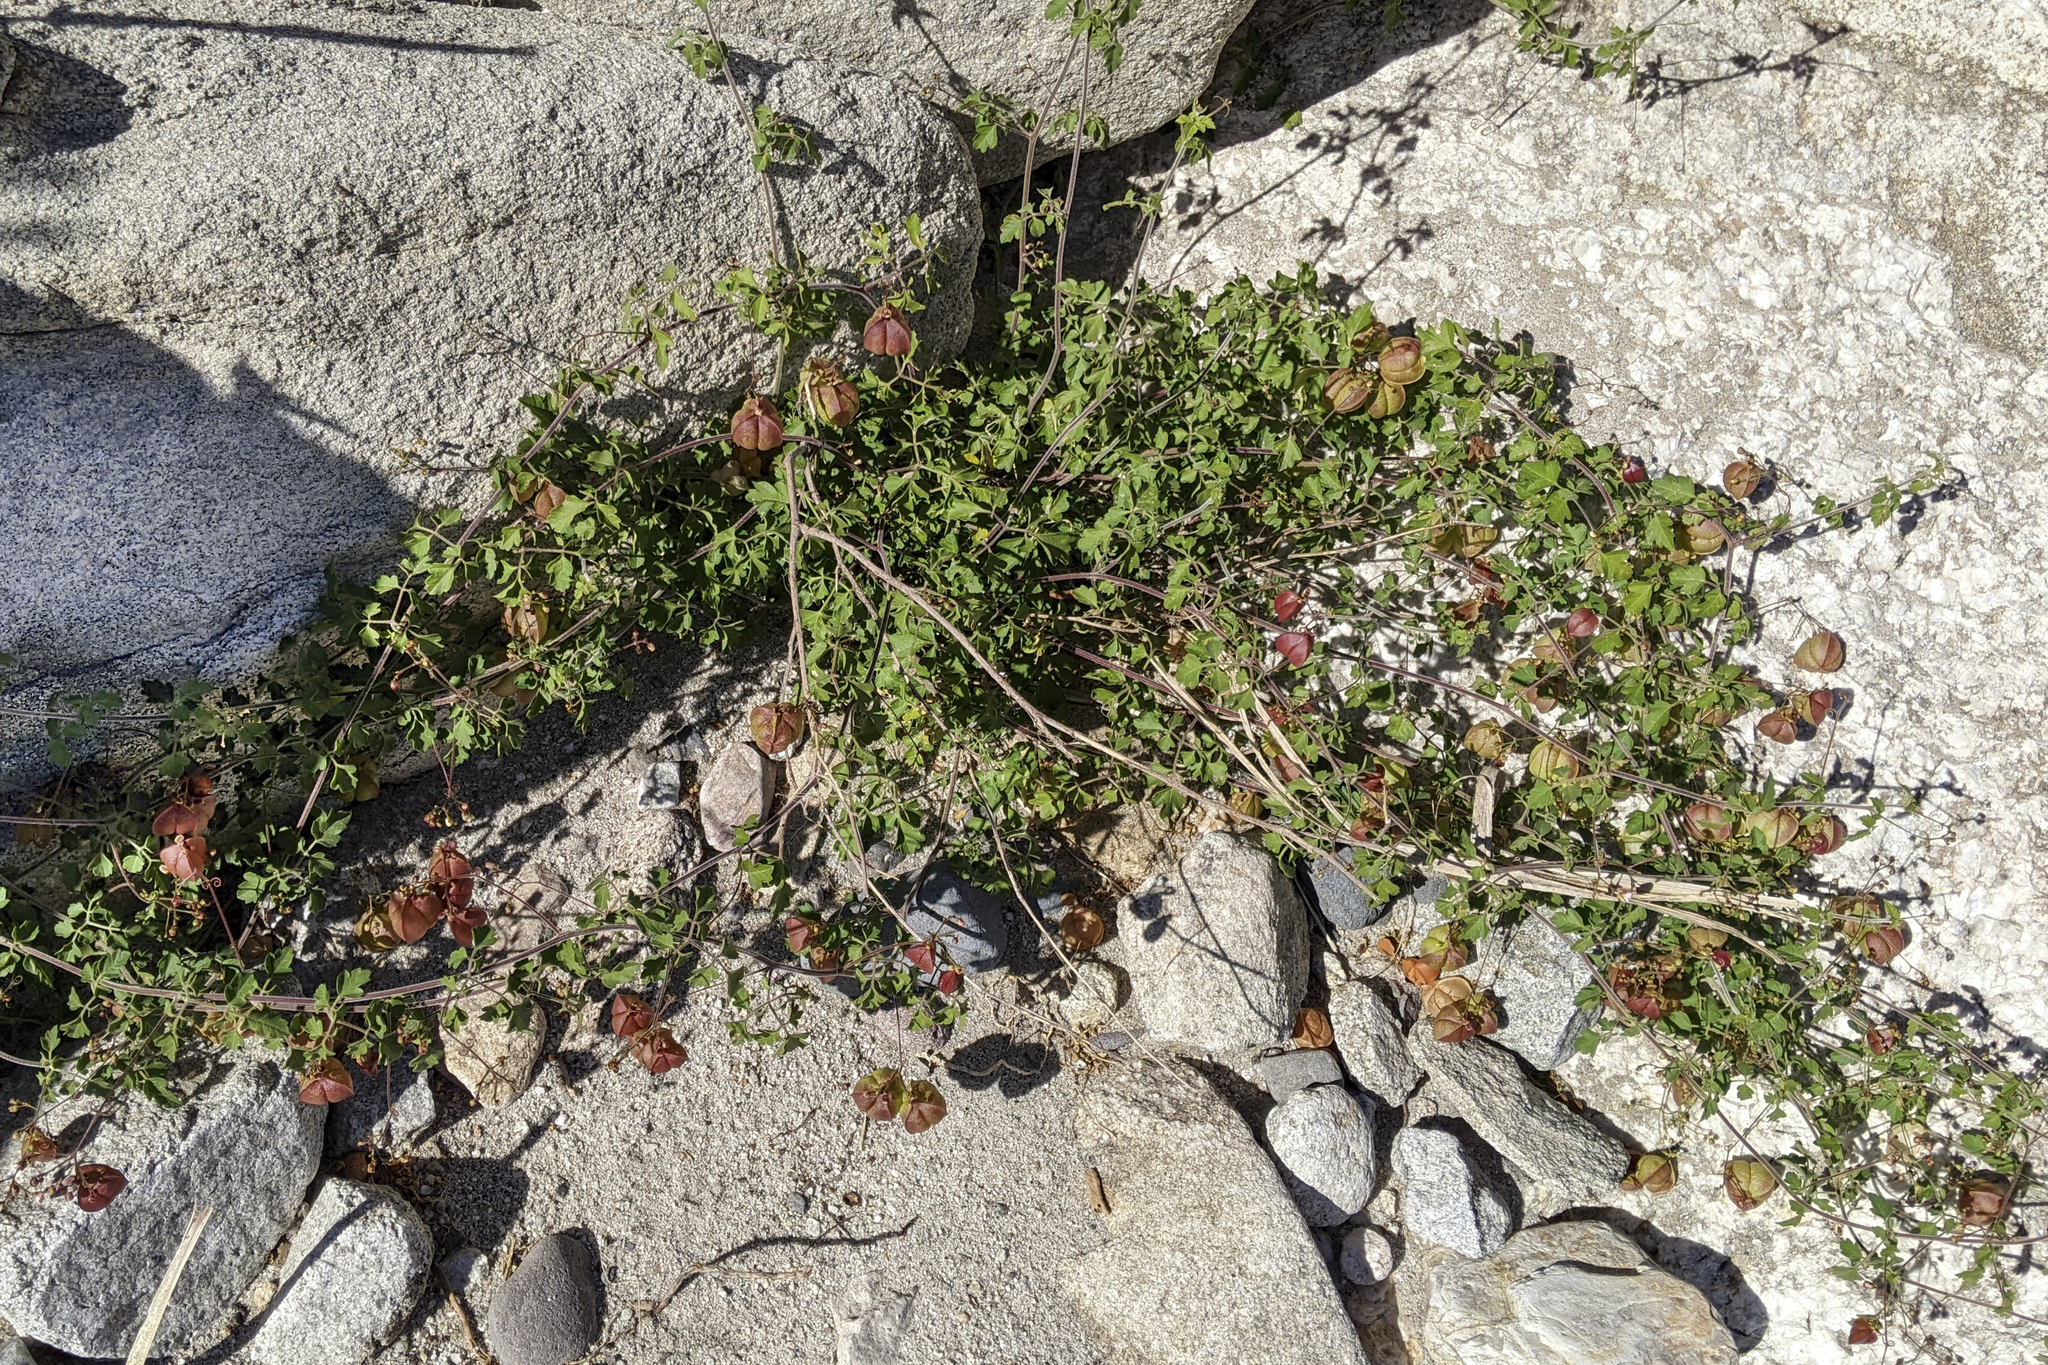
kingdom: Plantae
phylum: Tracheophyta
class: Magnoliopsida
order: Sapindales
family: Sapindaceae
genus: Cardiospermum
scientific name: Cardiospermum corindum
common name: Faux persil
